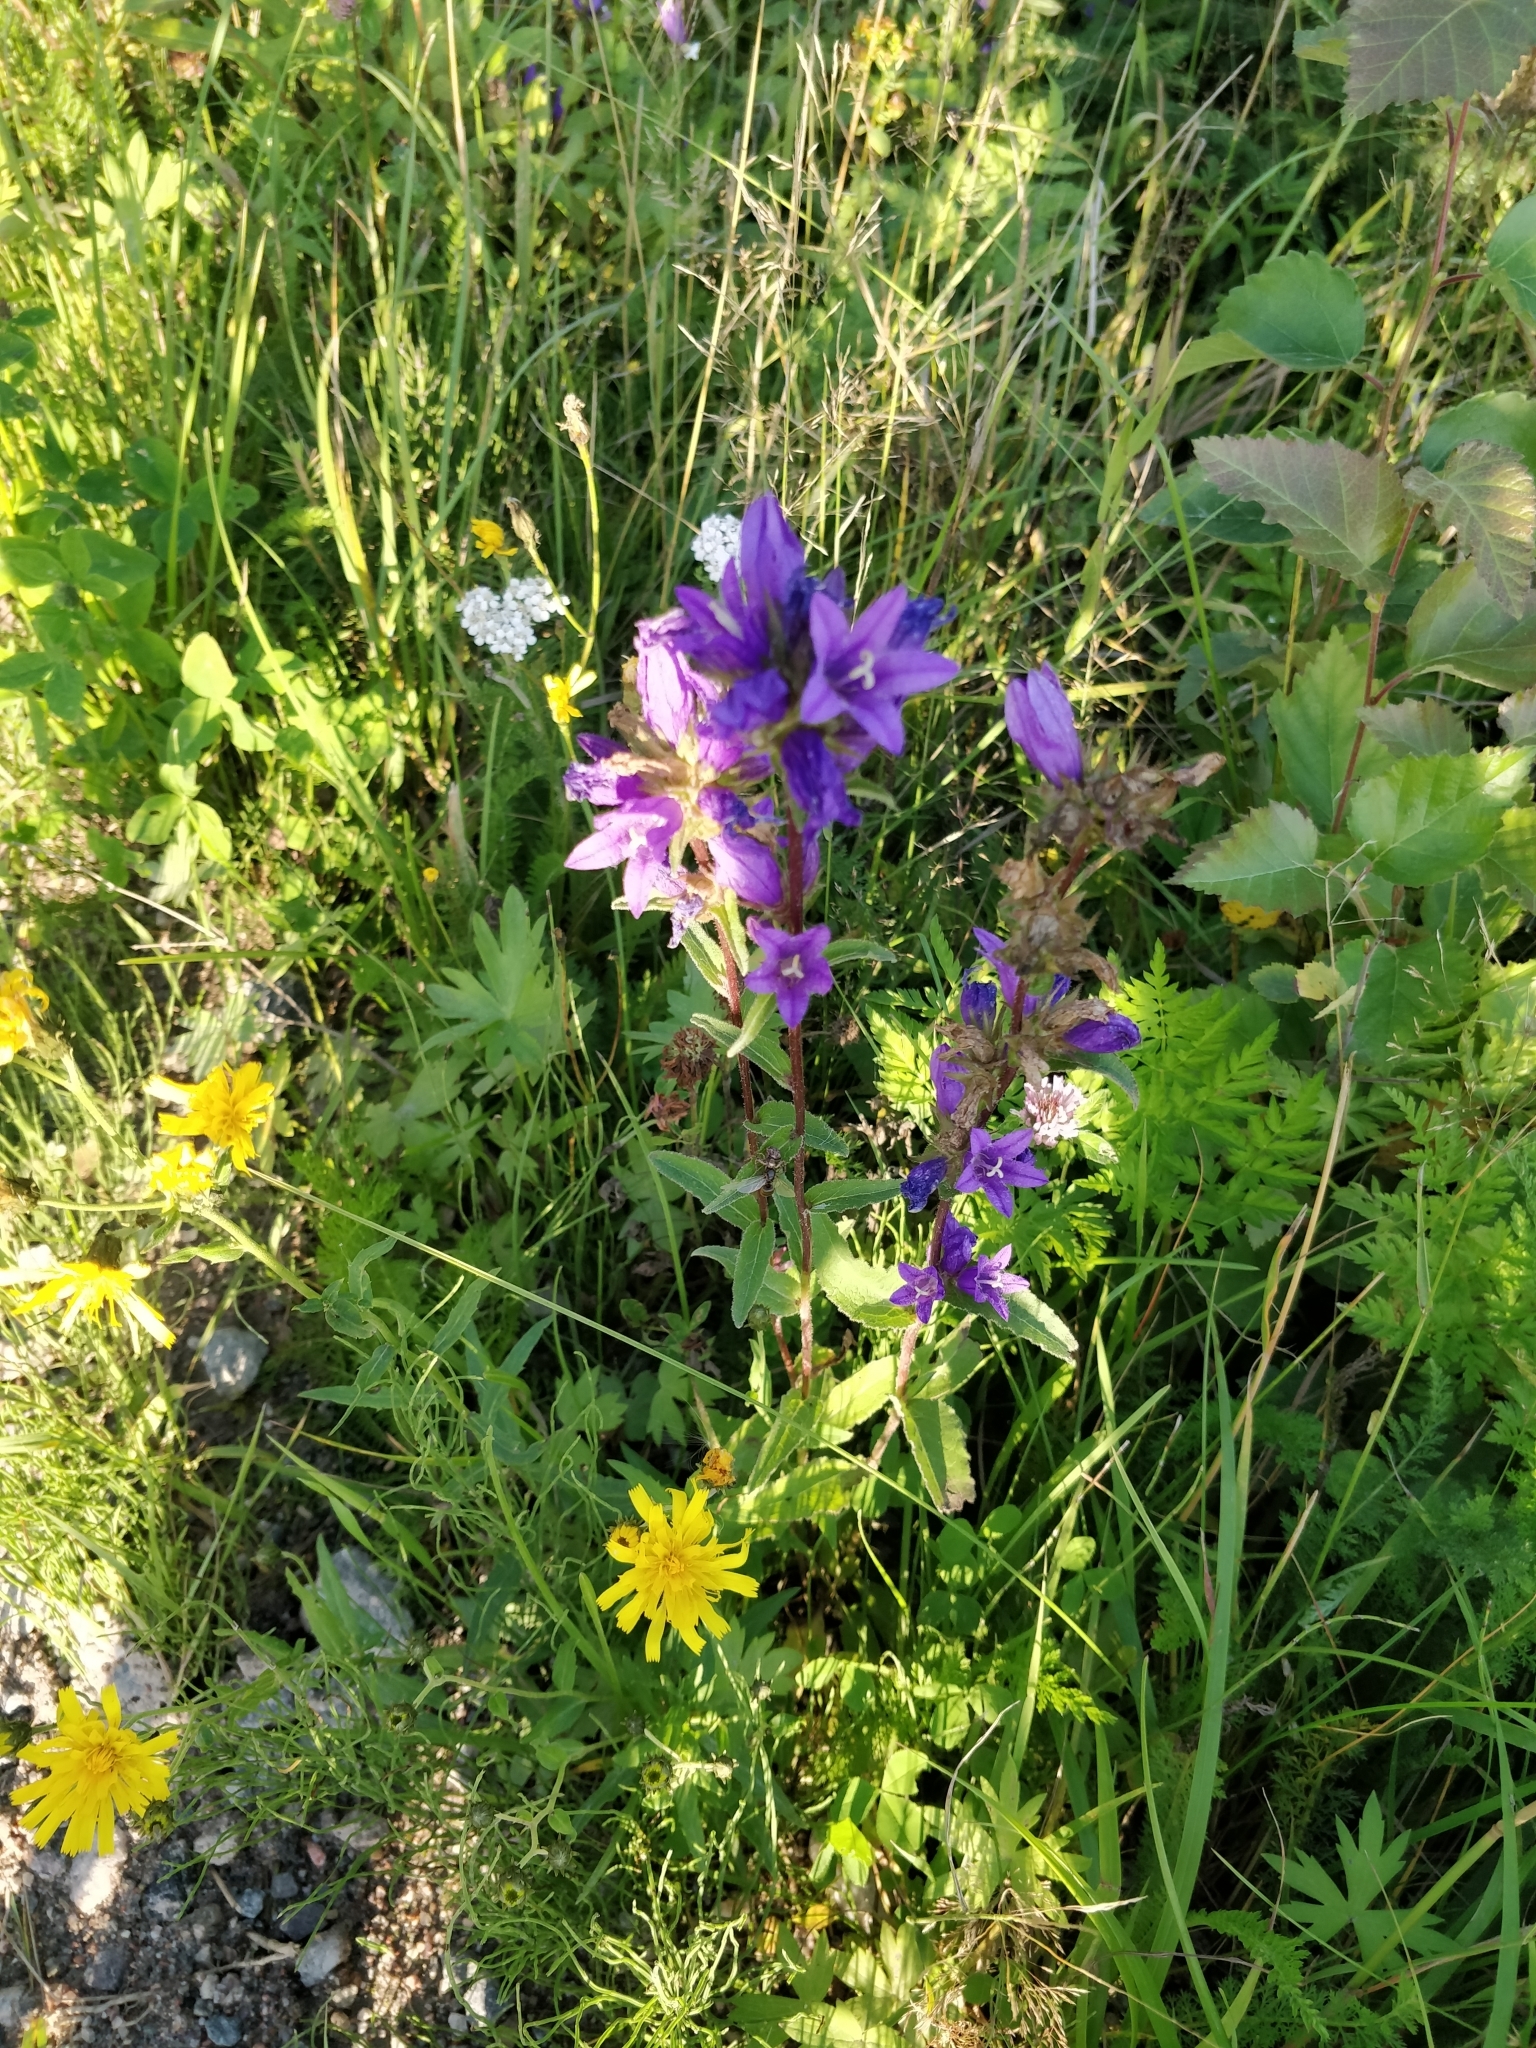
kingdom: Plantae
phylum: Tracheophyta
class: Magnoliopsida
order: Asterales
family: Campanulaceae
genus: Campanula
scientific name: Campanula glomerata
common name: Clustered bellflower
